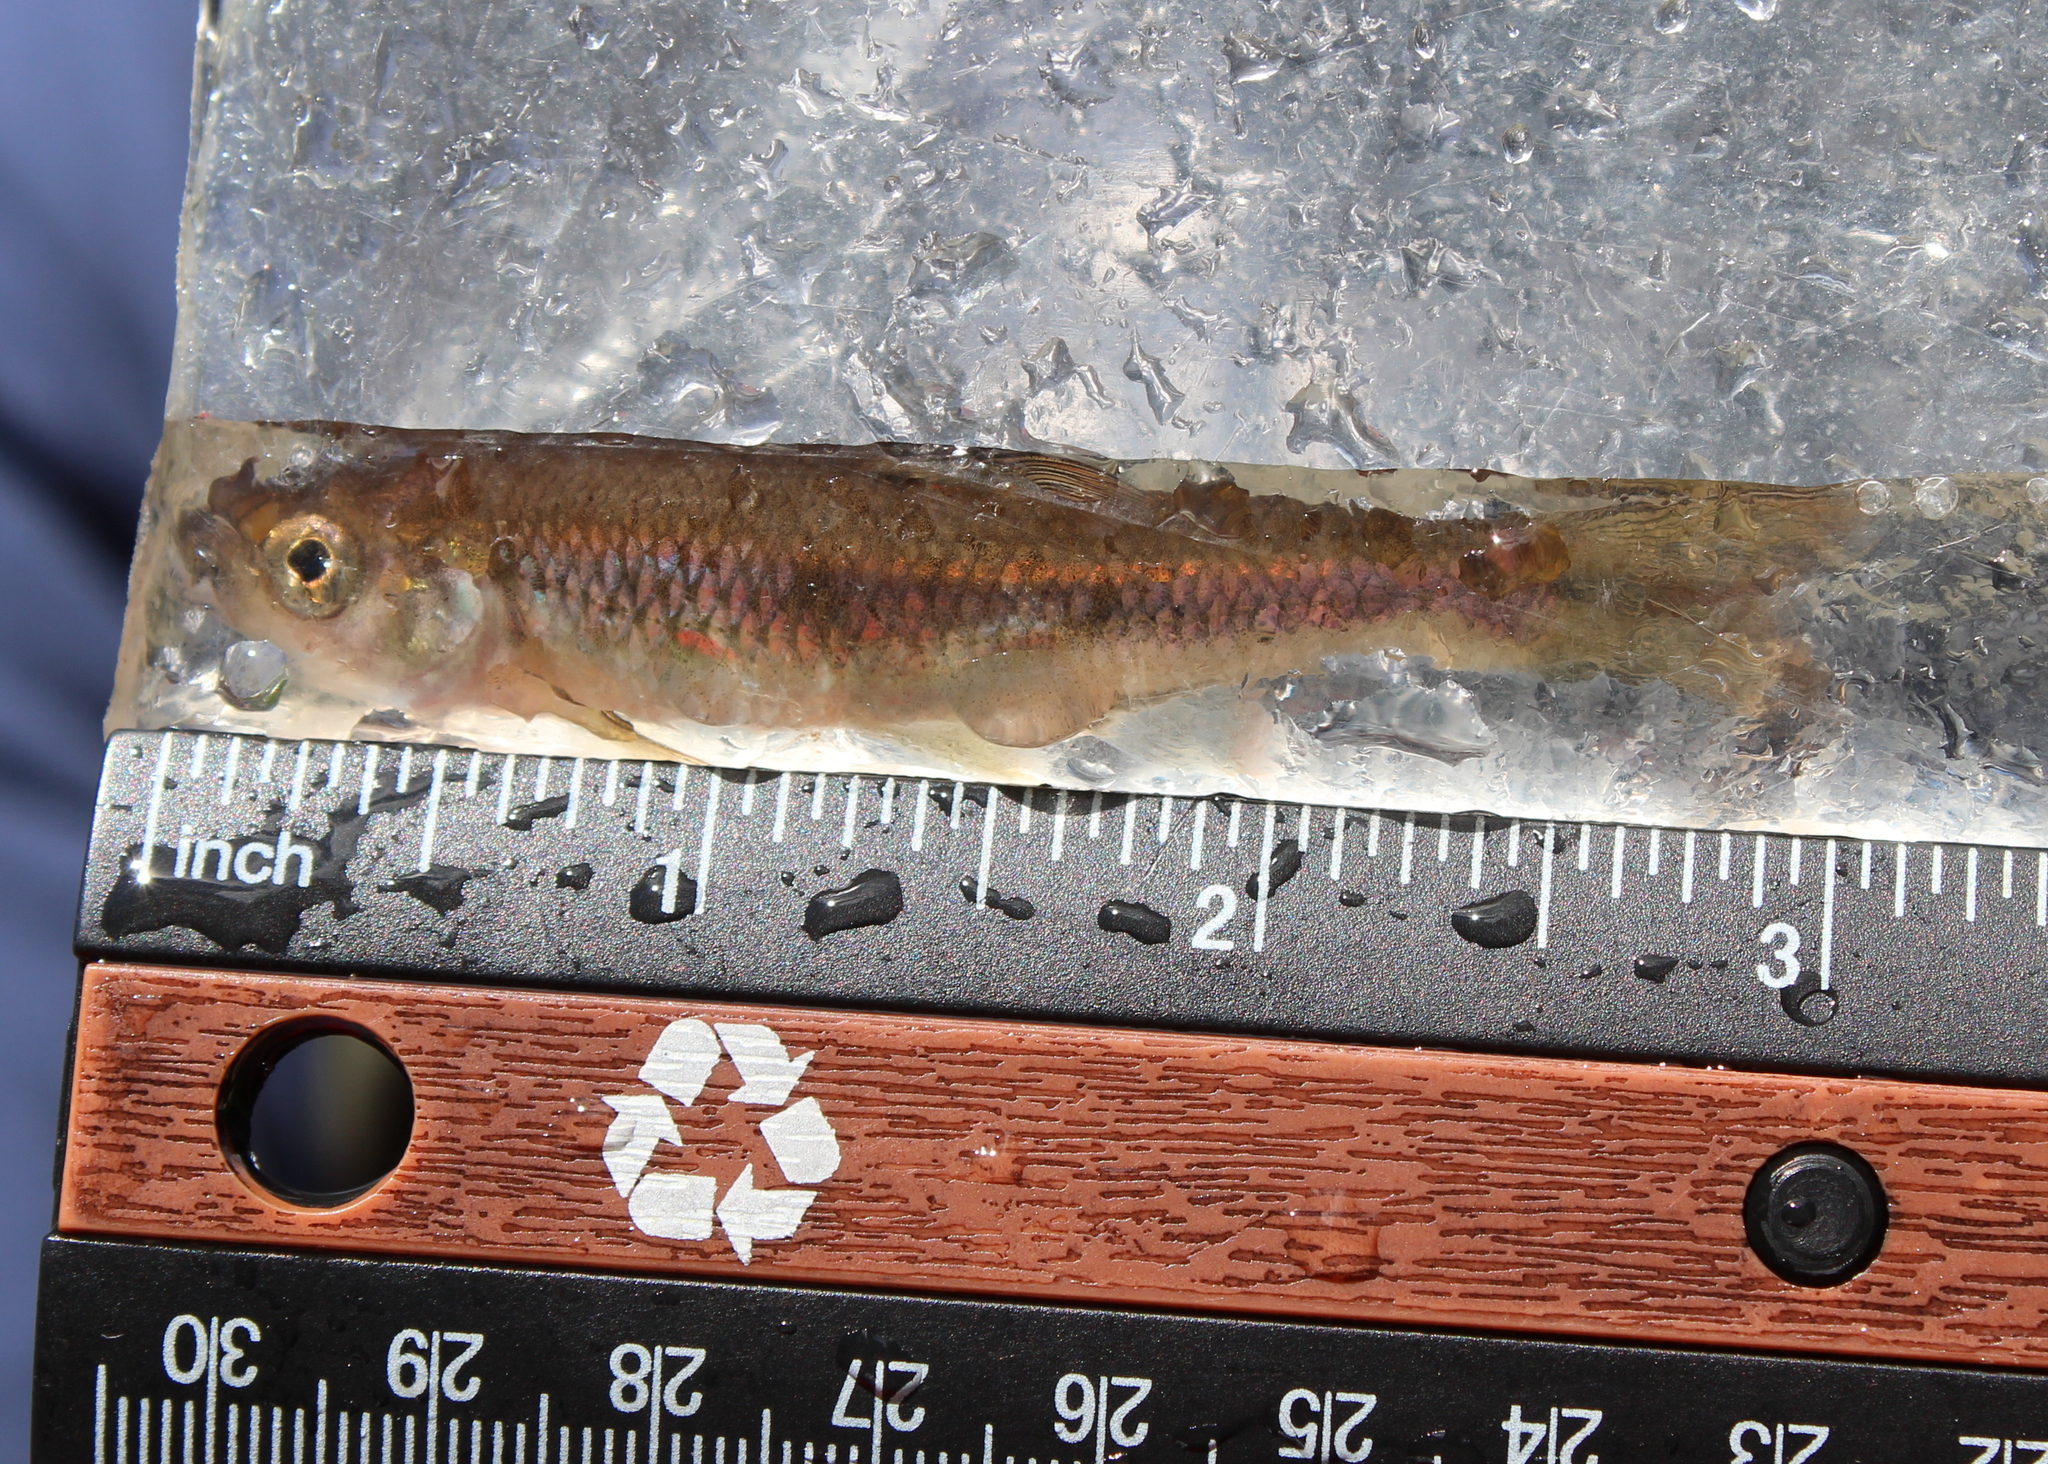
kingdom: Animalia
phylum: Chordata
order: Cypriniformes
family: Cyprinidae
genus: Luxilus
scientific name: Luxilus cornutus
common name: Common shiner
